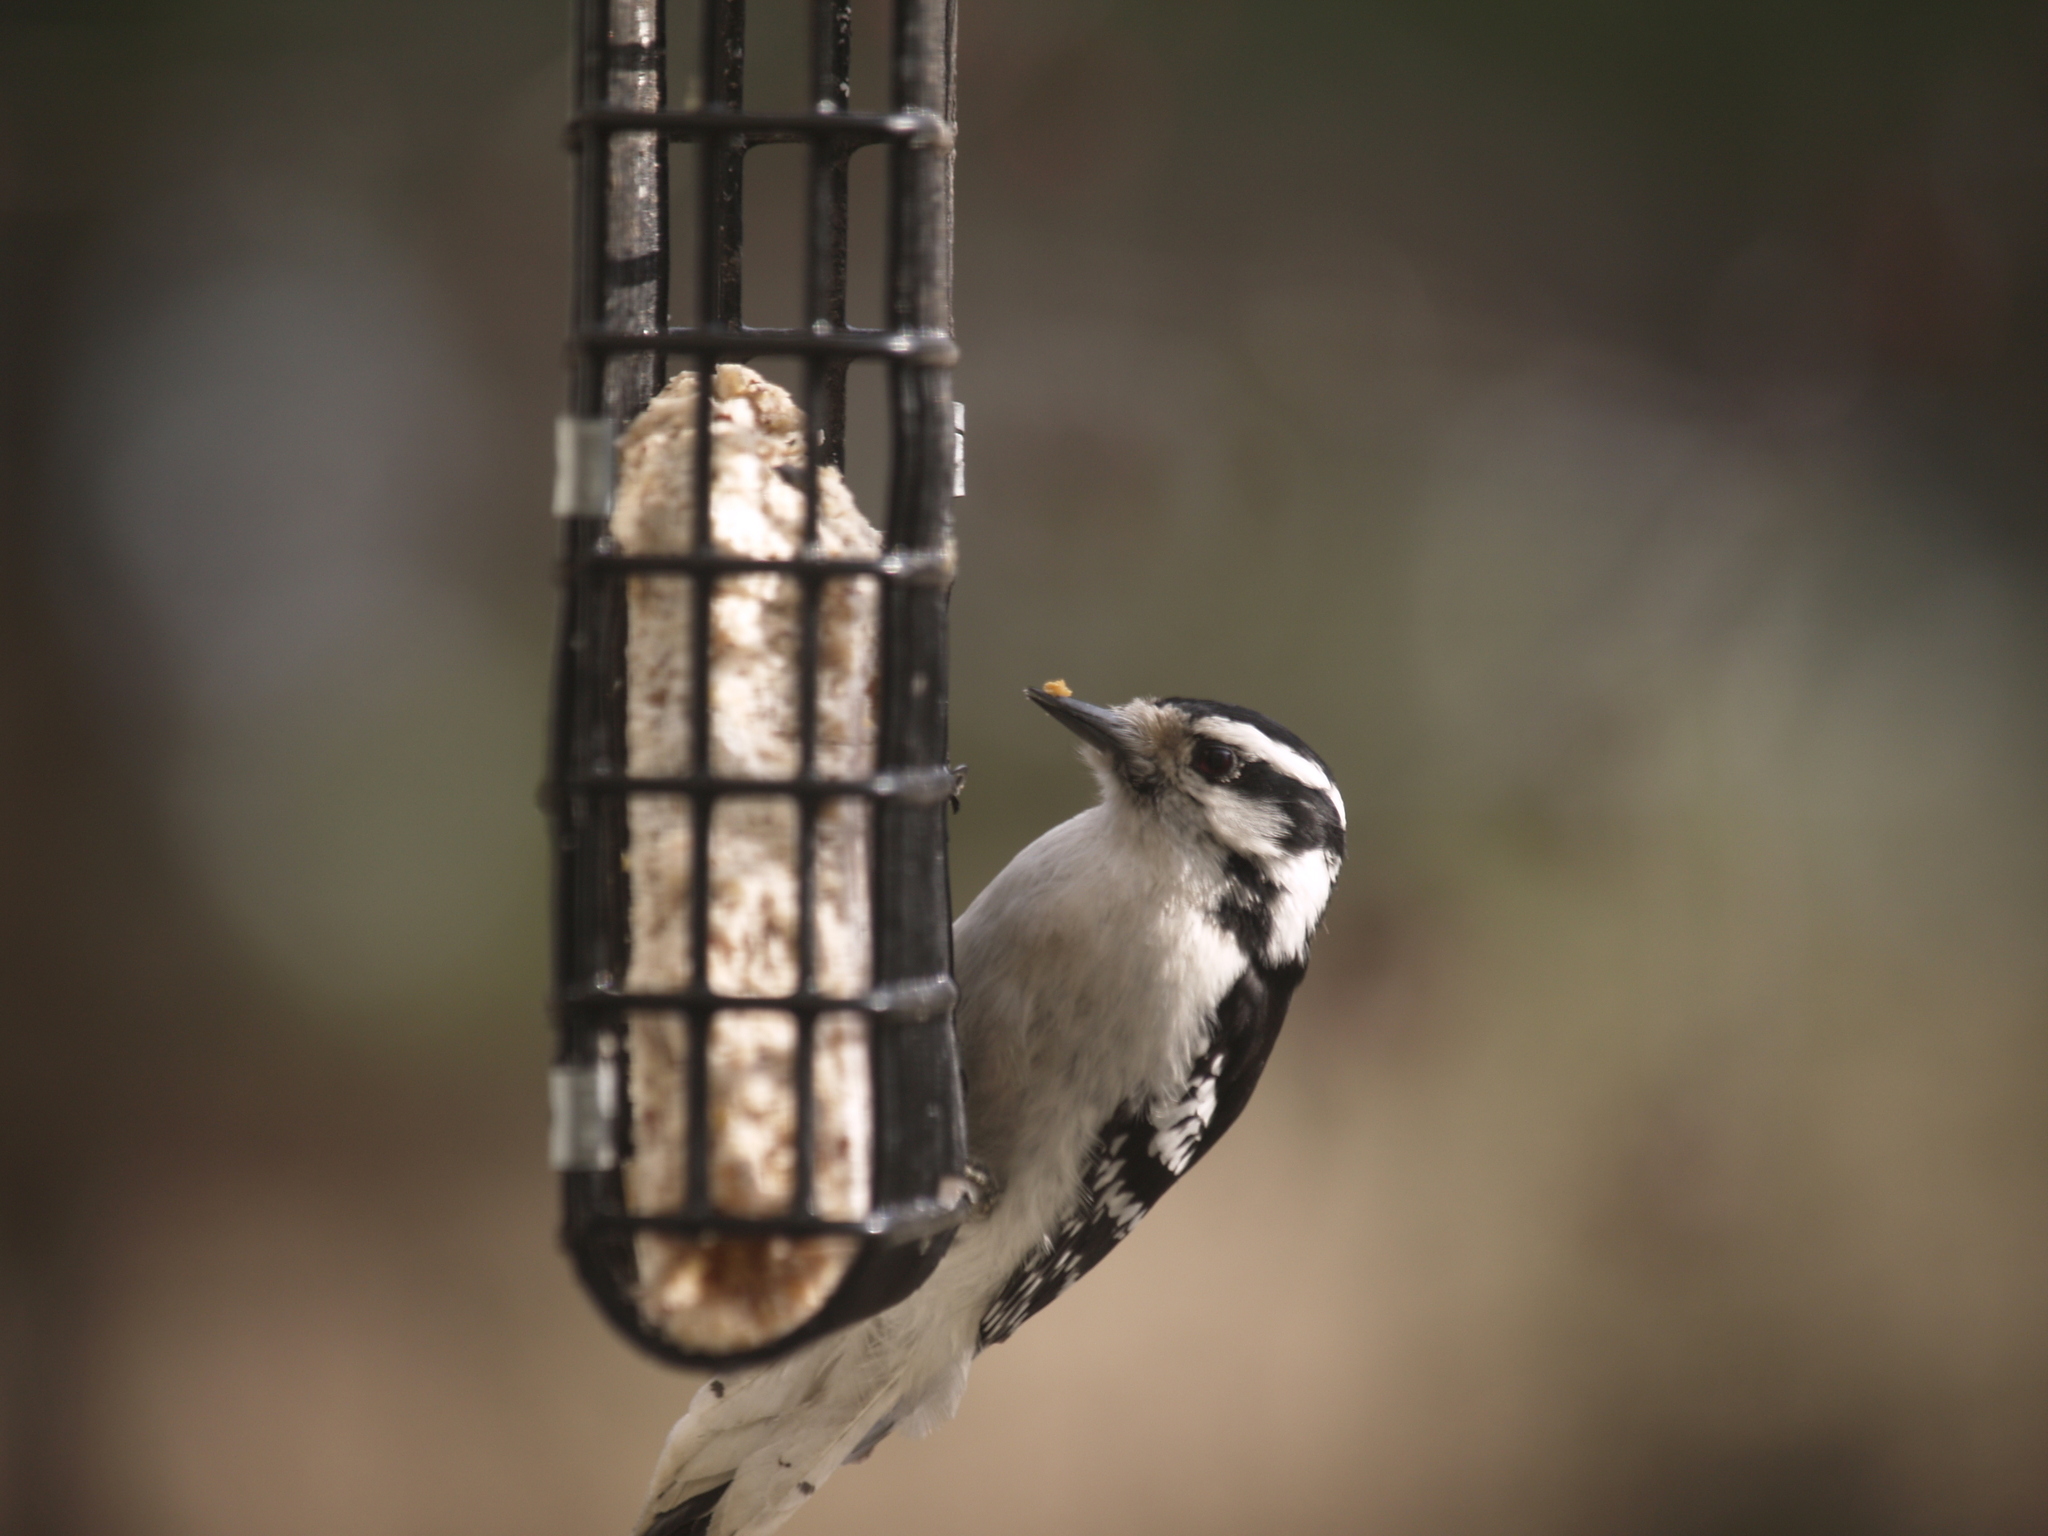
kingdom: Animalia
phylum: Chordata
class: Aves
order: Piciformes
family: Picidae
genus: Dryobates
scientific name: Dryobates pubescens
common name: Downy woodpecker
